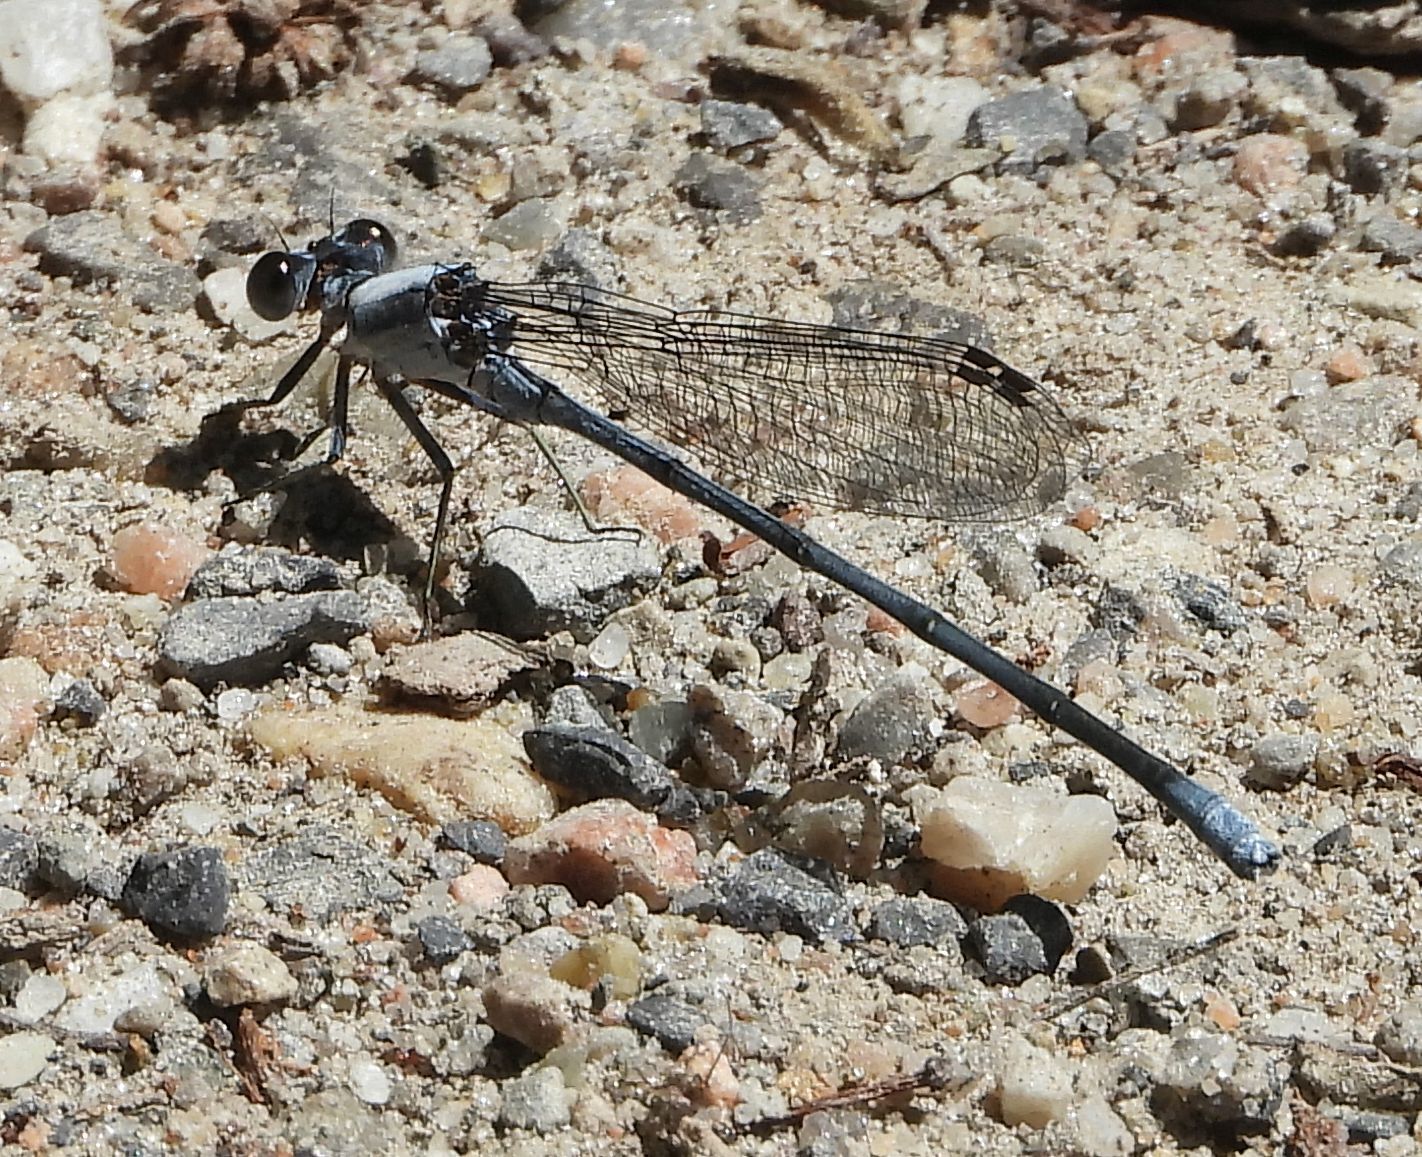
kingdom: Animalia
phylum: Arthropoda
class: Insecta
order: Odonata
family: Coenagrionidae
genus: Argia
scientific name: Argia moesta
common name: Powdered dancer
